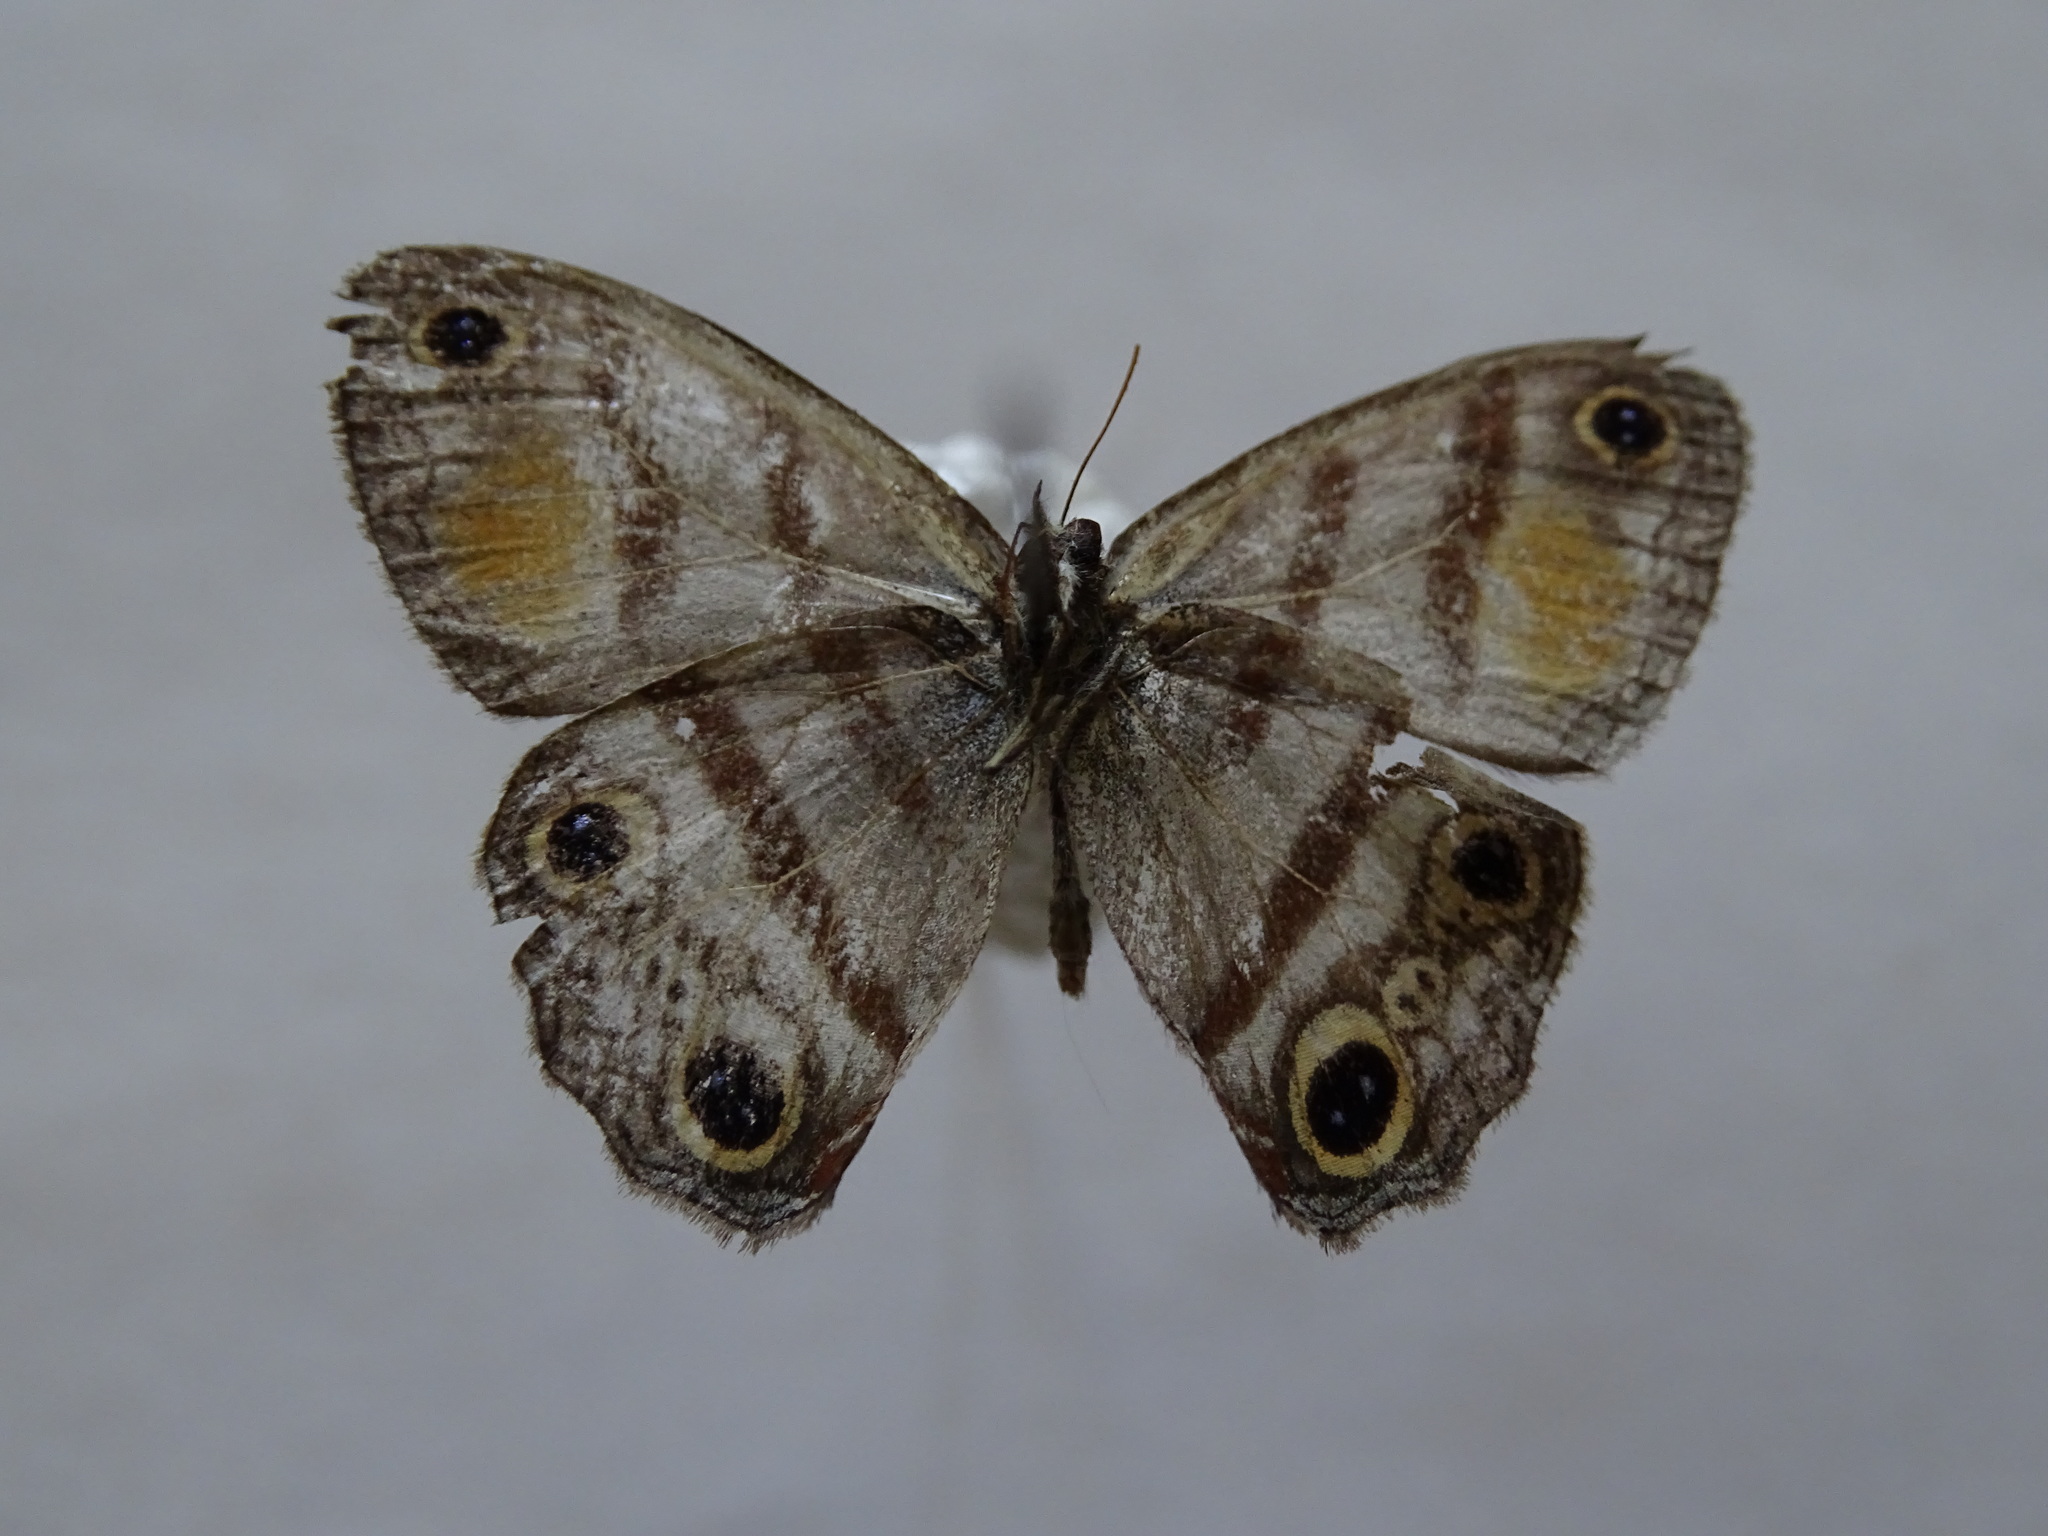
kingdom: Animalia
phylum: Arthropoda
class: Insecta
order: Lepidoptera
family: Nymphalidae
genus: Argyreuptychia
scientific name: Argyreuptychia labe
